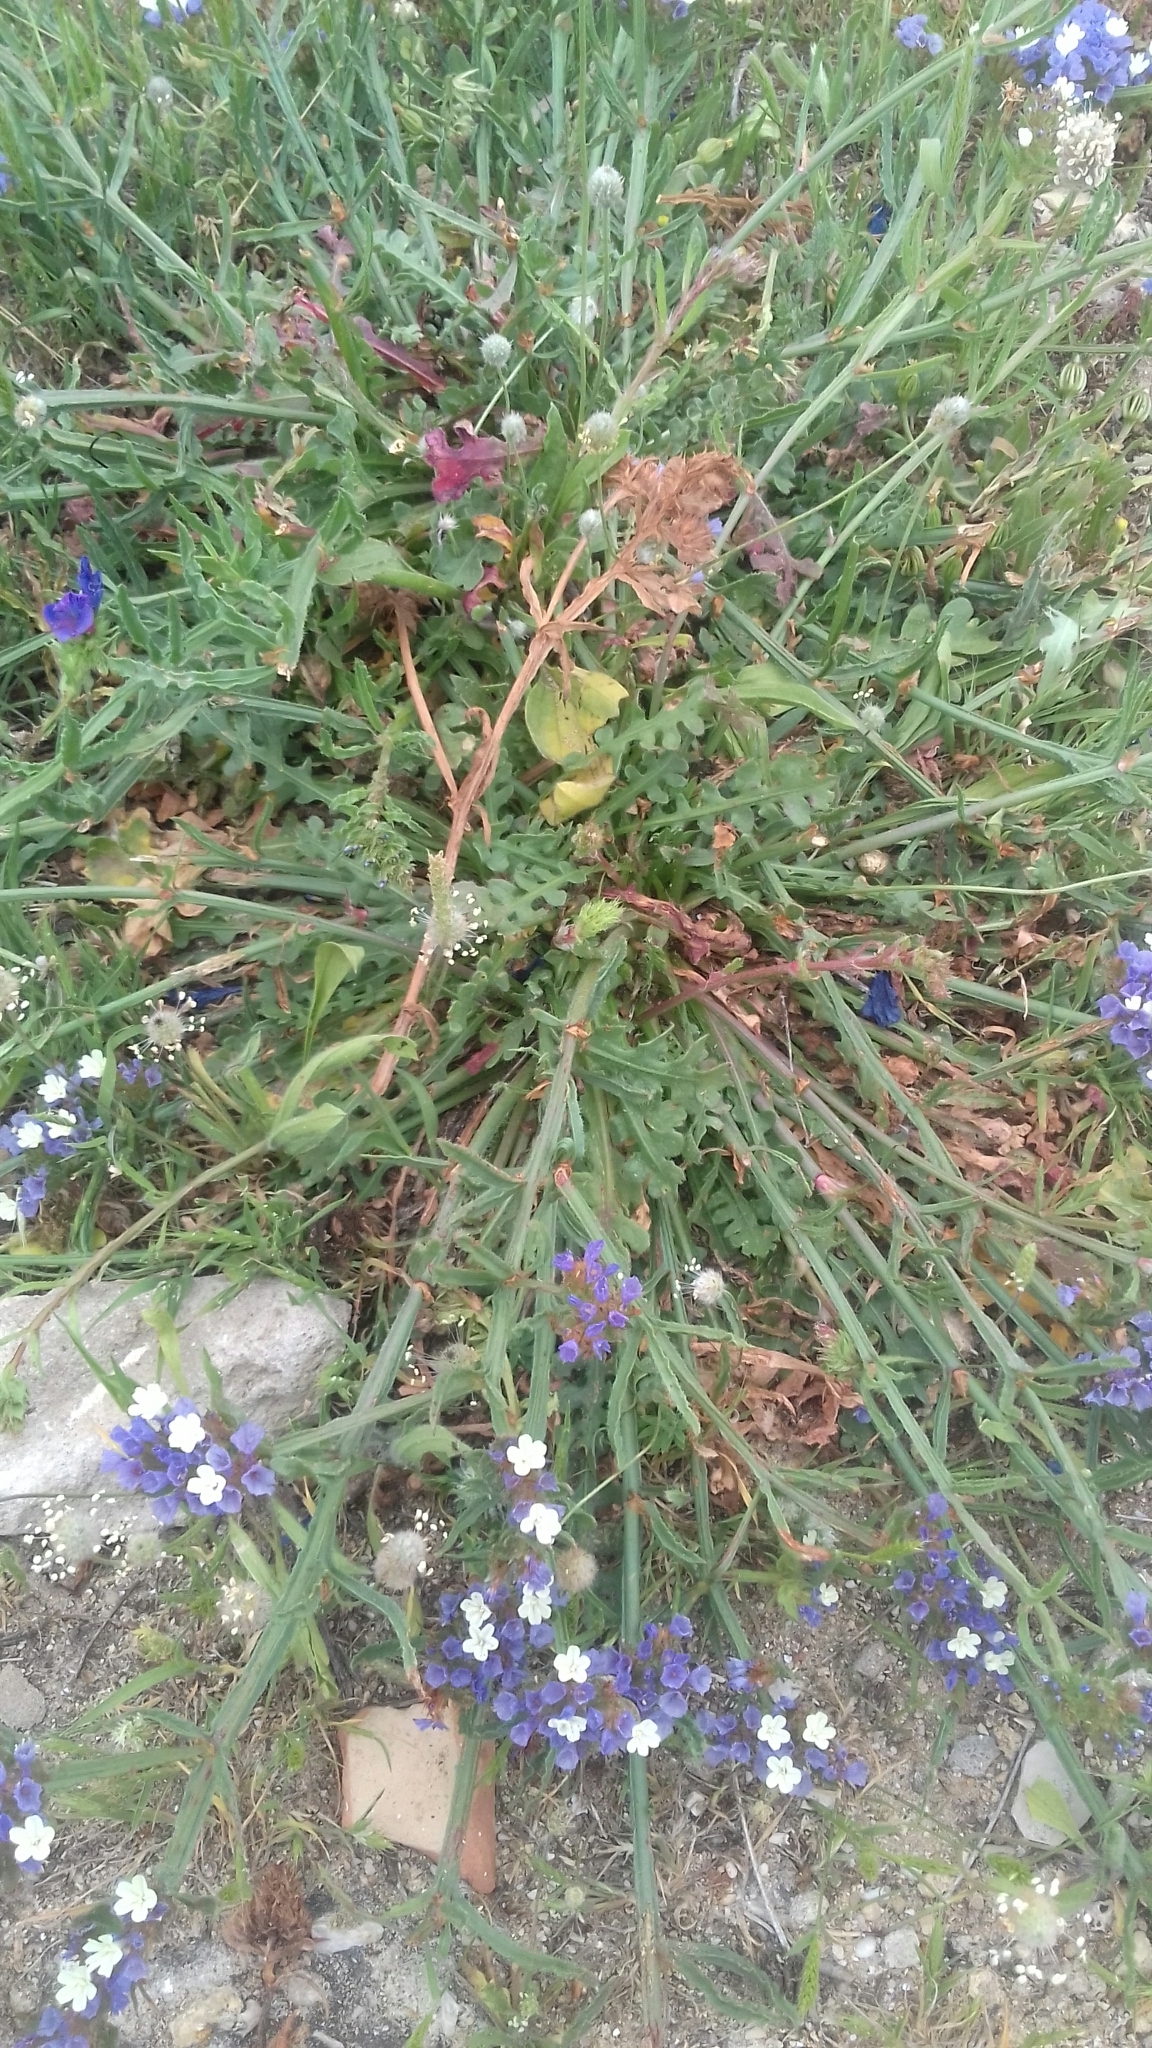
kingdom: Plantae
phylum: Tracheophyta
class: Magnoliopsida
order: Caryophyllales
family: Plumbaginaceae
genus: Limonium
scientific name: Limonium sinuatum
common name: Statice
